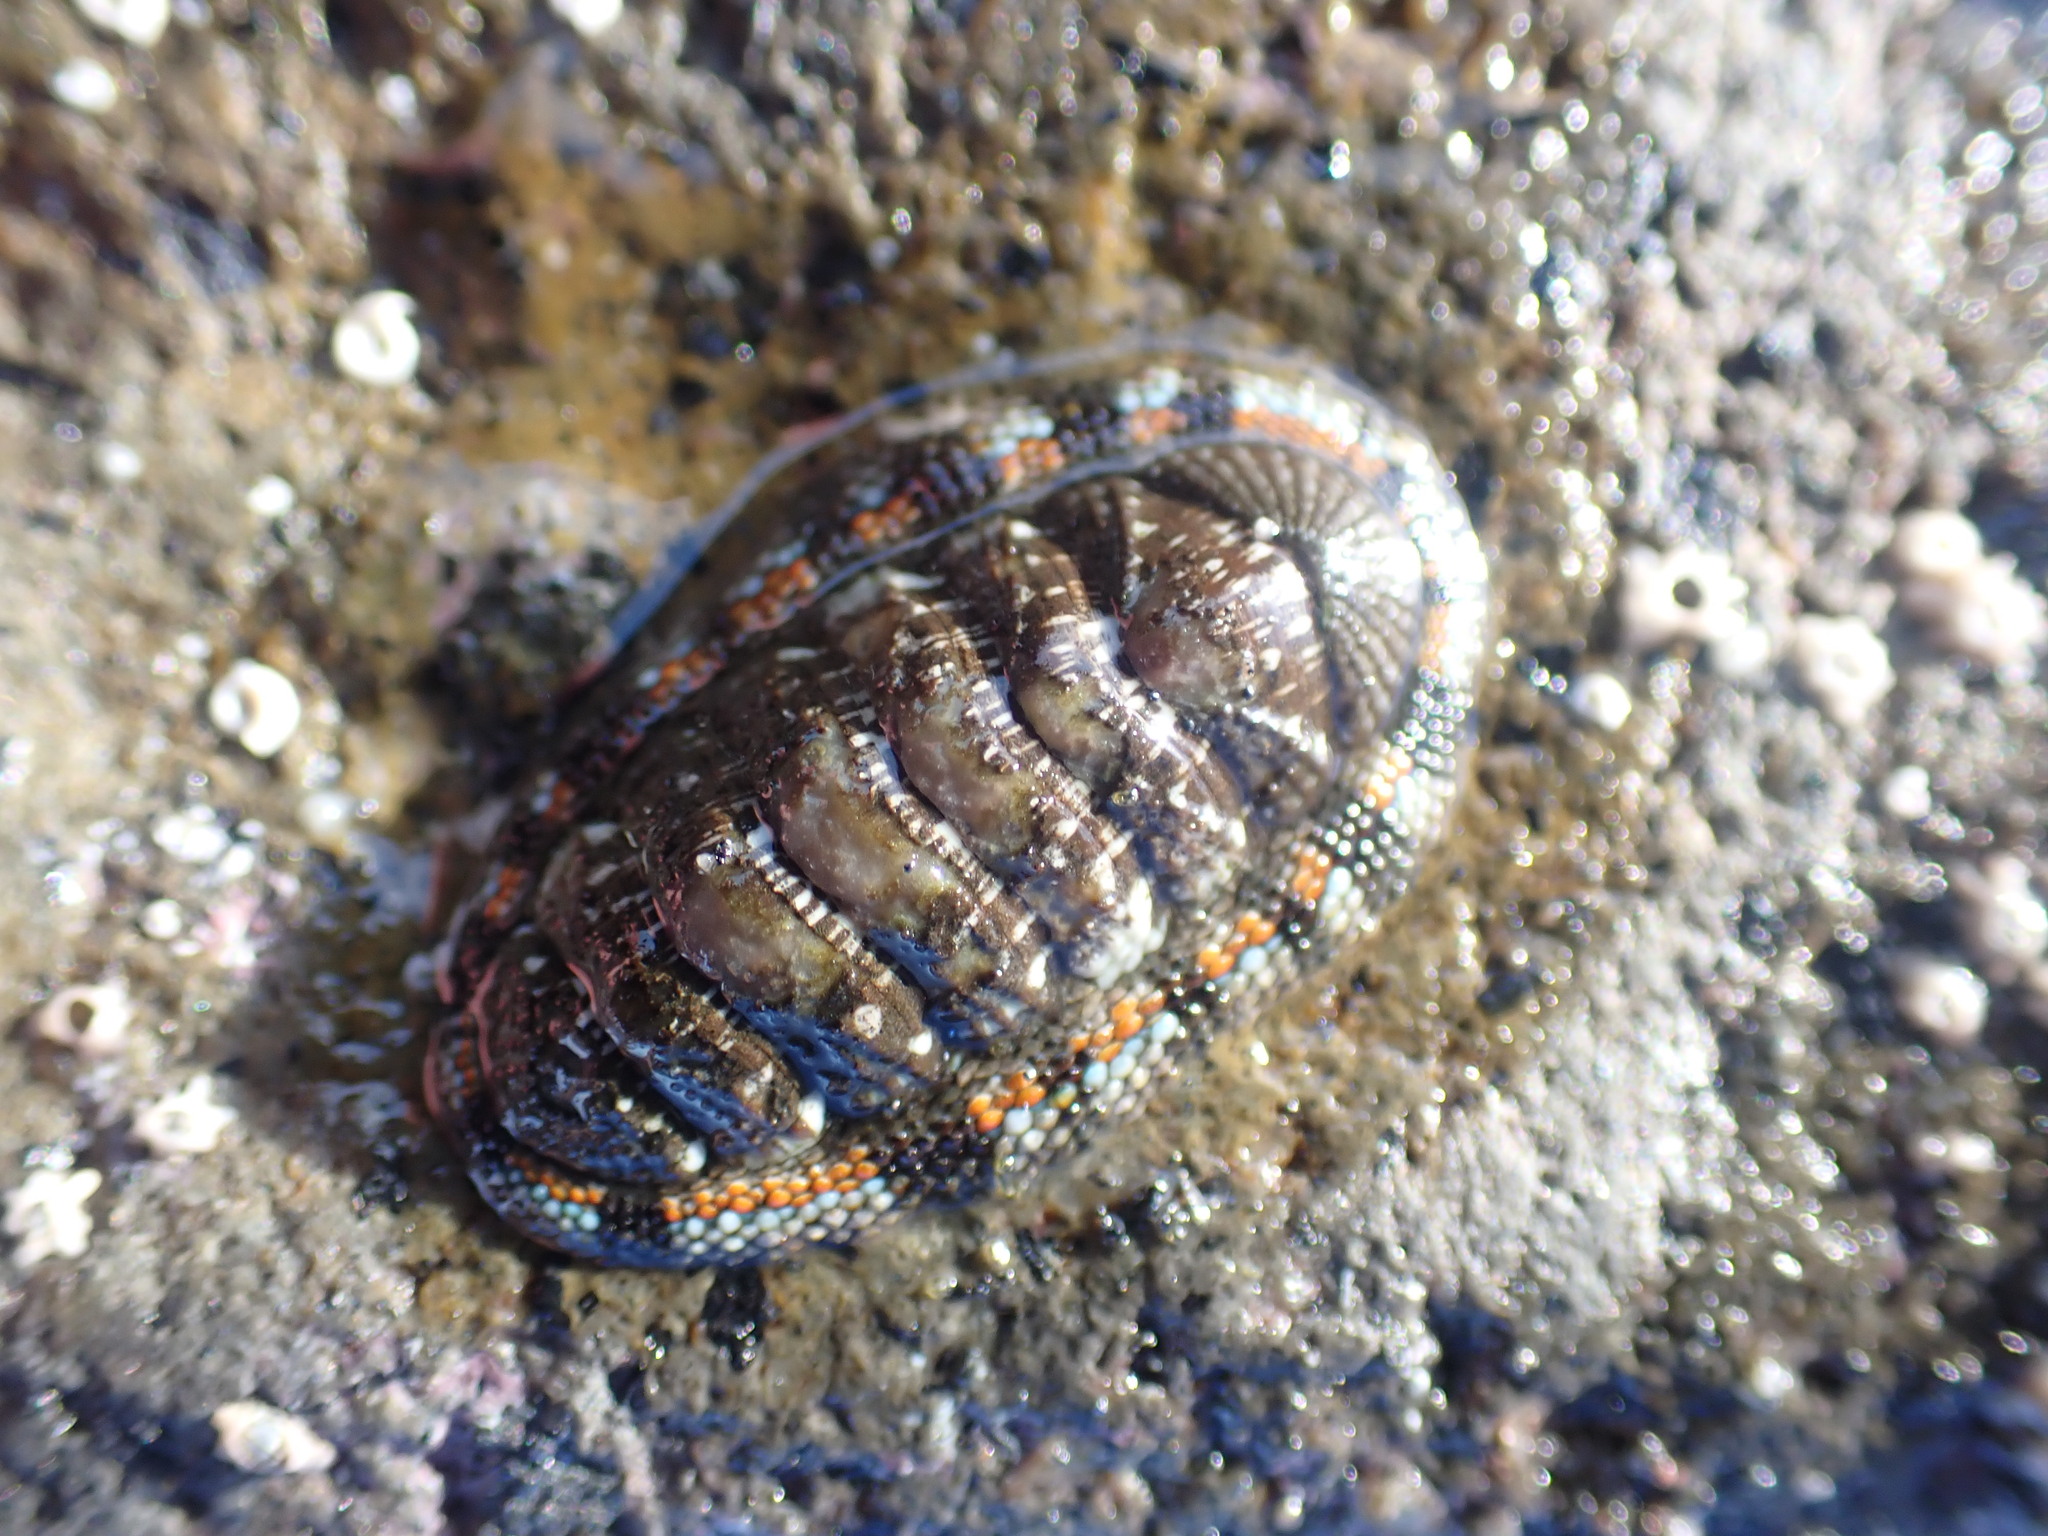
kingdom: Animalia
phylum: Mollusca
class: Polyplacophora
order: Chitonida
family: Chitonidae
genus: Sypharochiton
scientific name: Sypharochiton sinclairi
